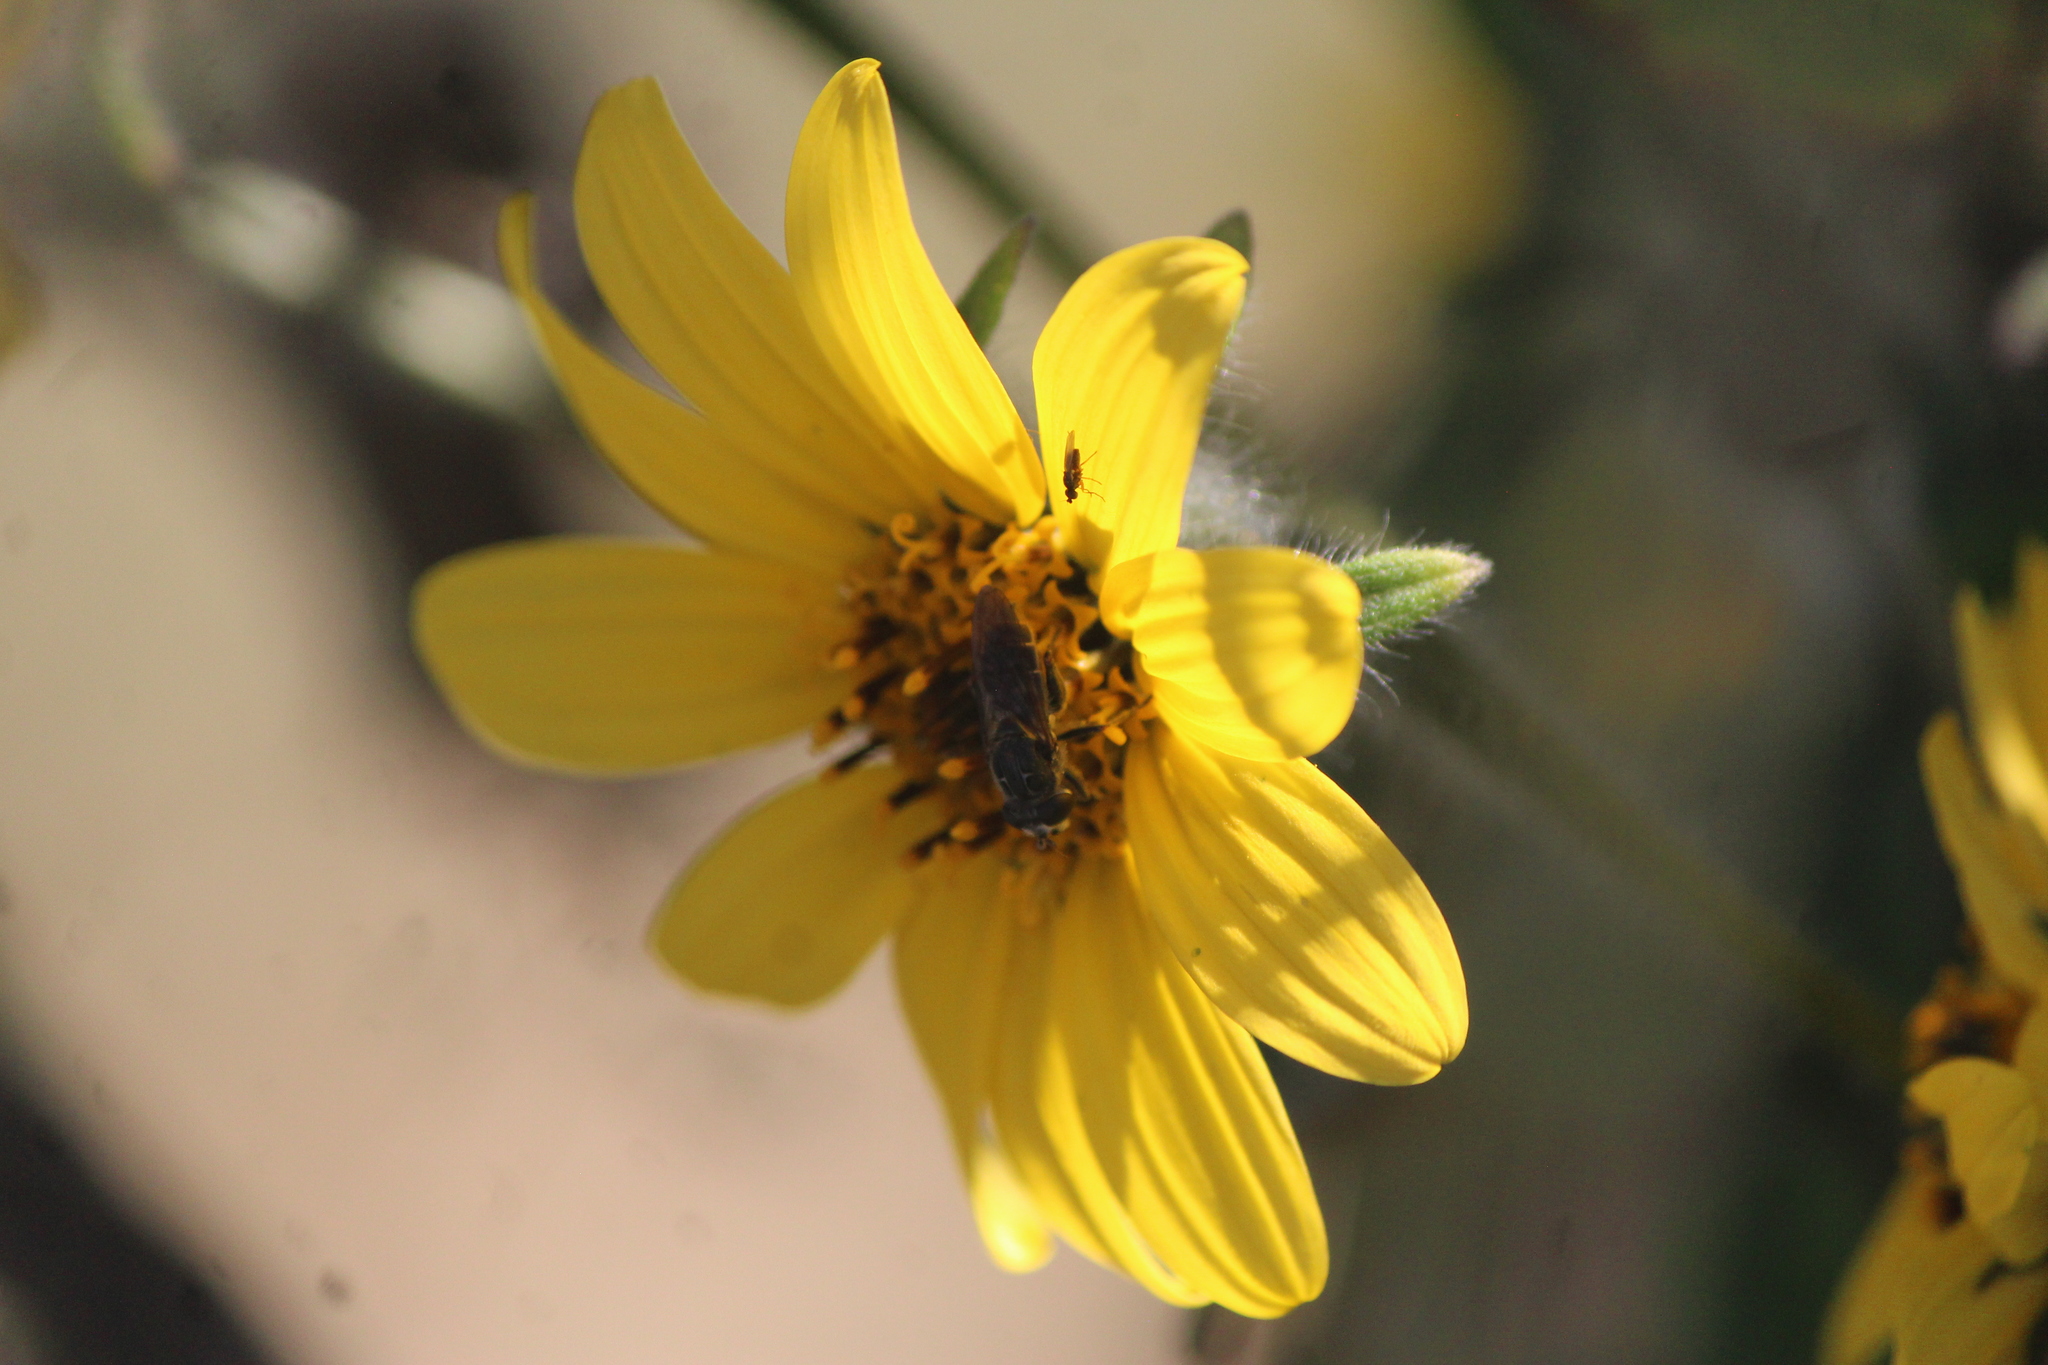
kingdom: Animalia
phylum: Arthropoda
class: Insecta
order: Diptera
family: Syrphidae
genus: Asemosyrphus
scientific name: Asemosyrphus
